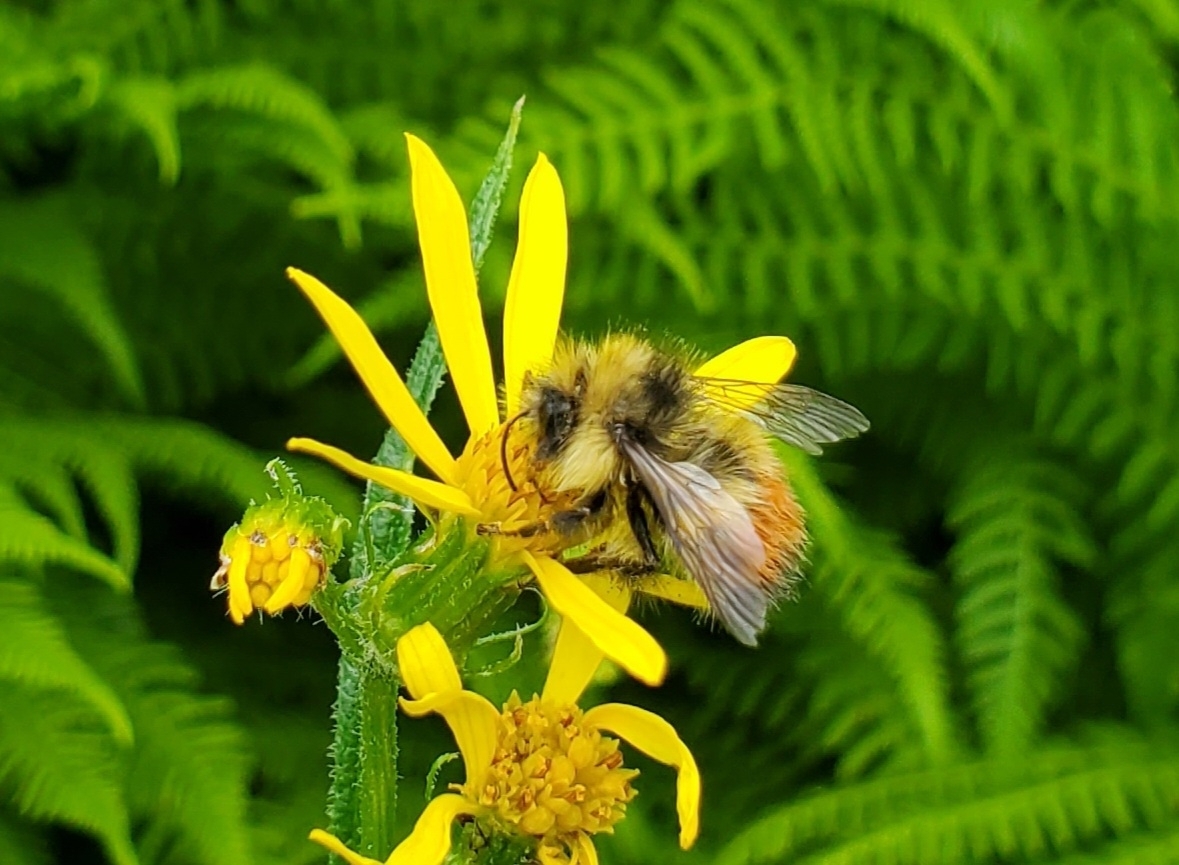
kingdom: Animalia
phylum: Arthropoda
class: Insecta
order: Hymenoptera
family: Apidae
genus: Bombus
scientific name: Bombus flavifrons
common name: Yellow head bumble bee
